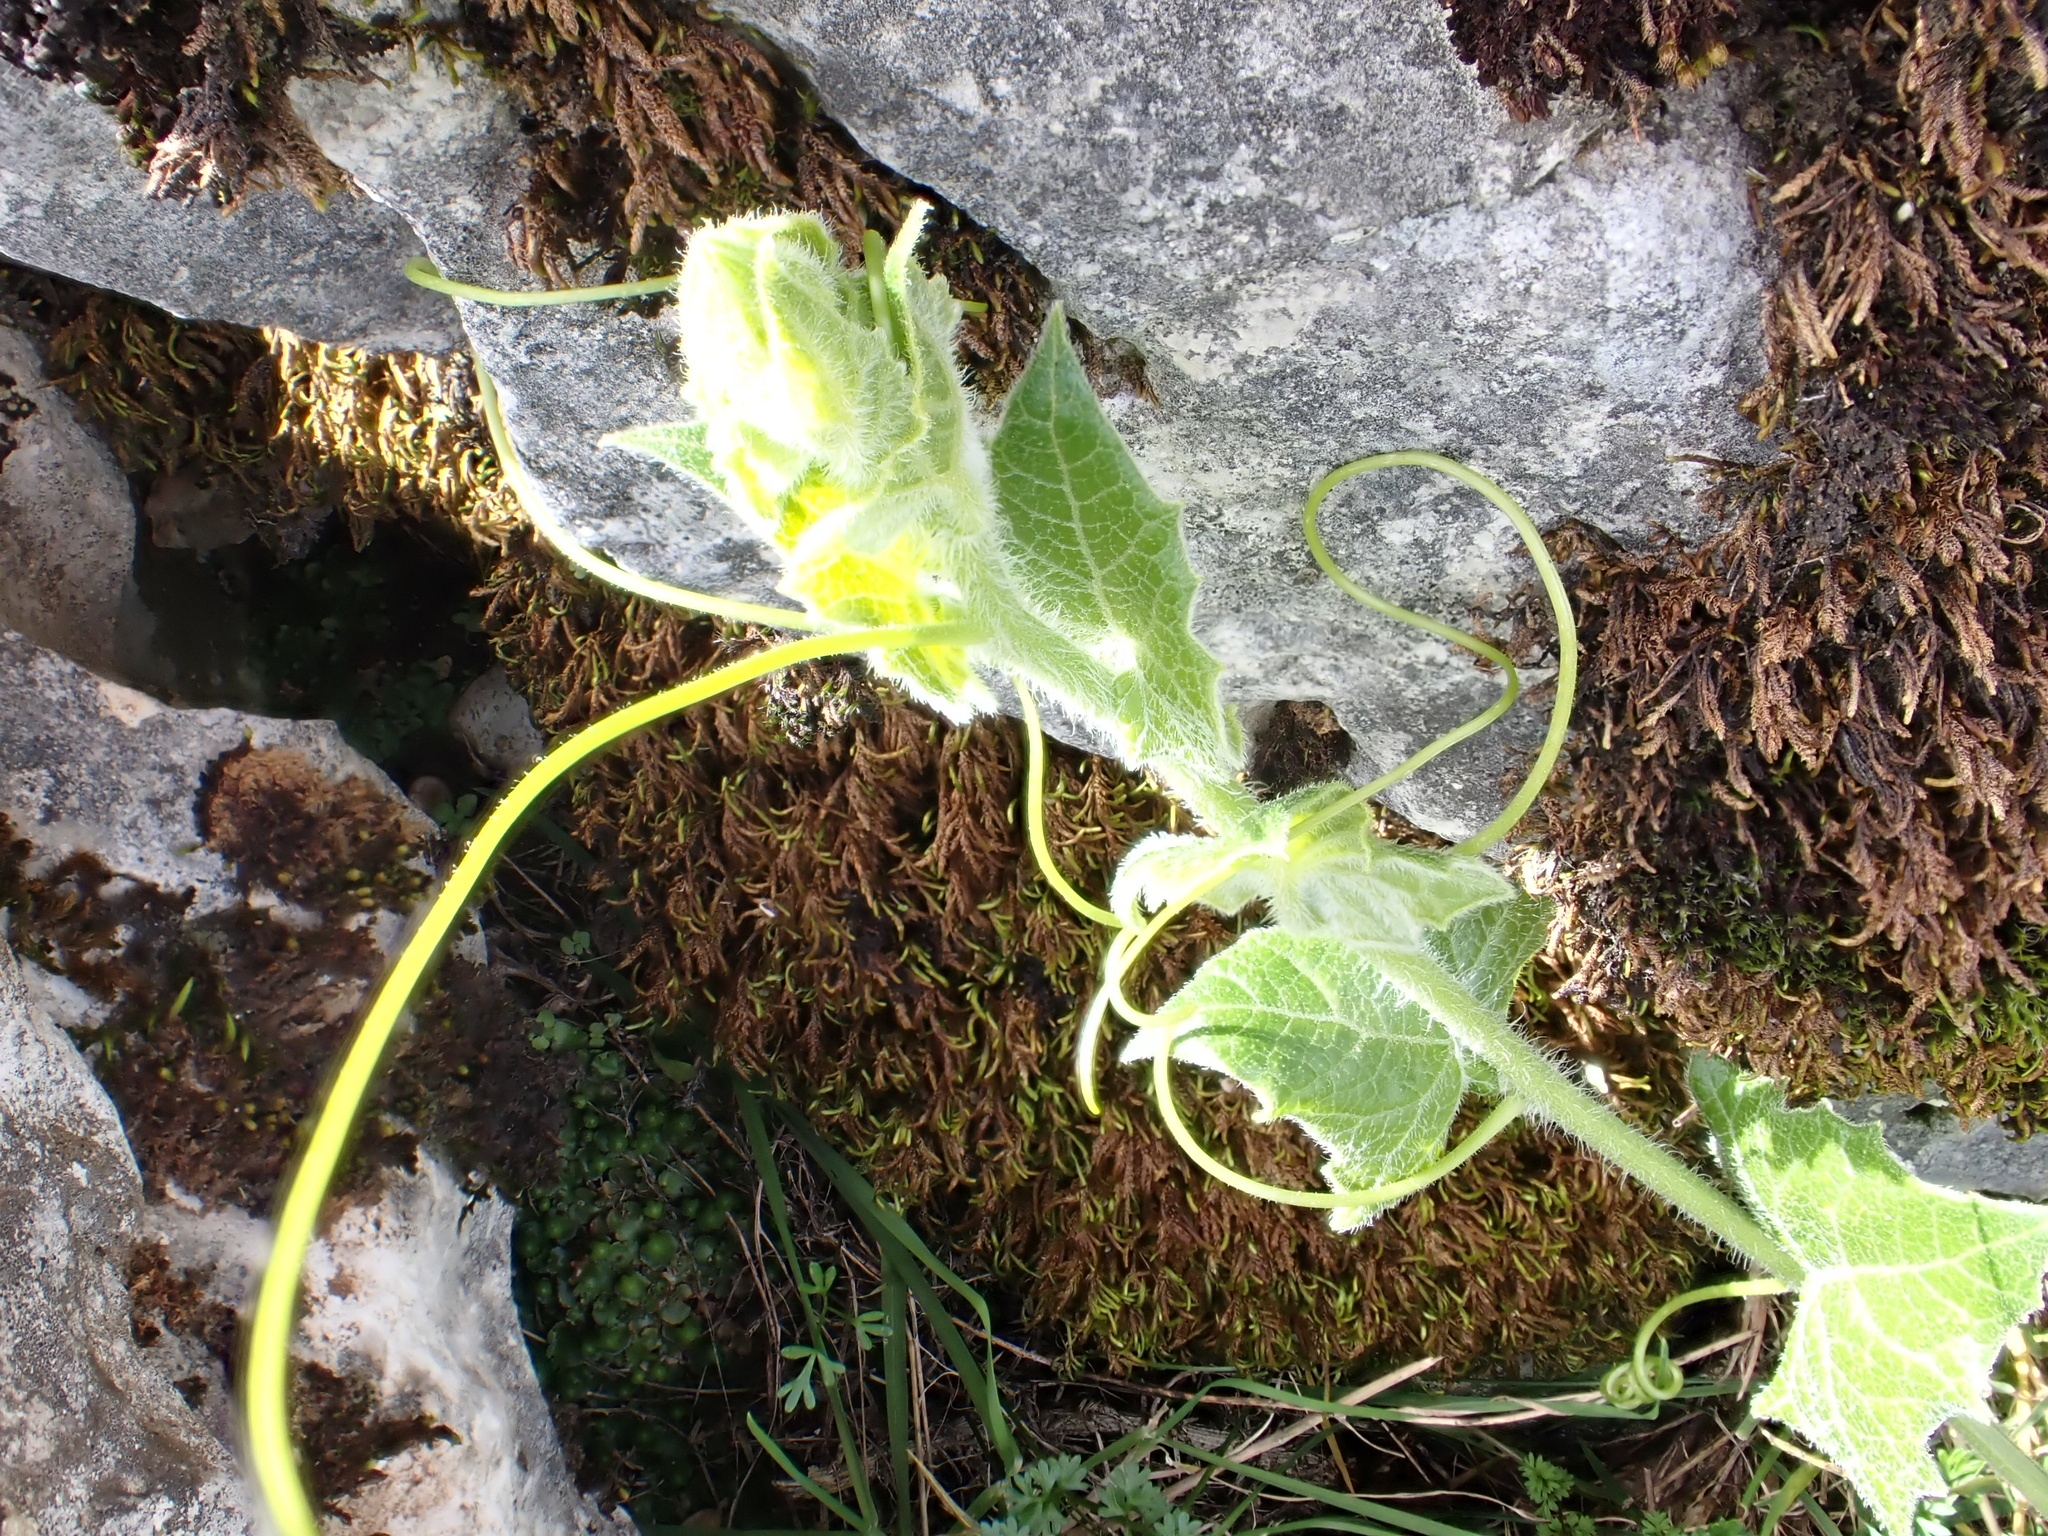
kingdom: Plantae
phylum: Tracheophyta
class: Magnoliopsida
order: Cucurbitales
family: Cucurbitaceae
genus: Bryonia
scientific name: Bryonia cretica
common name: Cretan bryony
